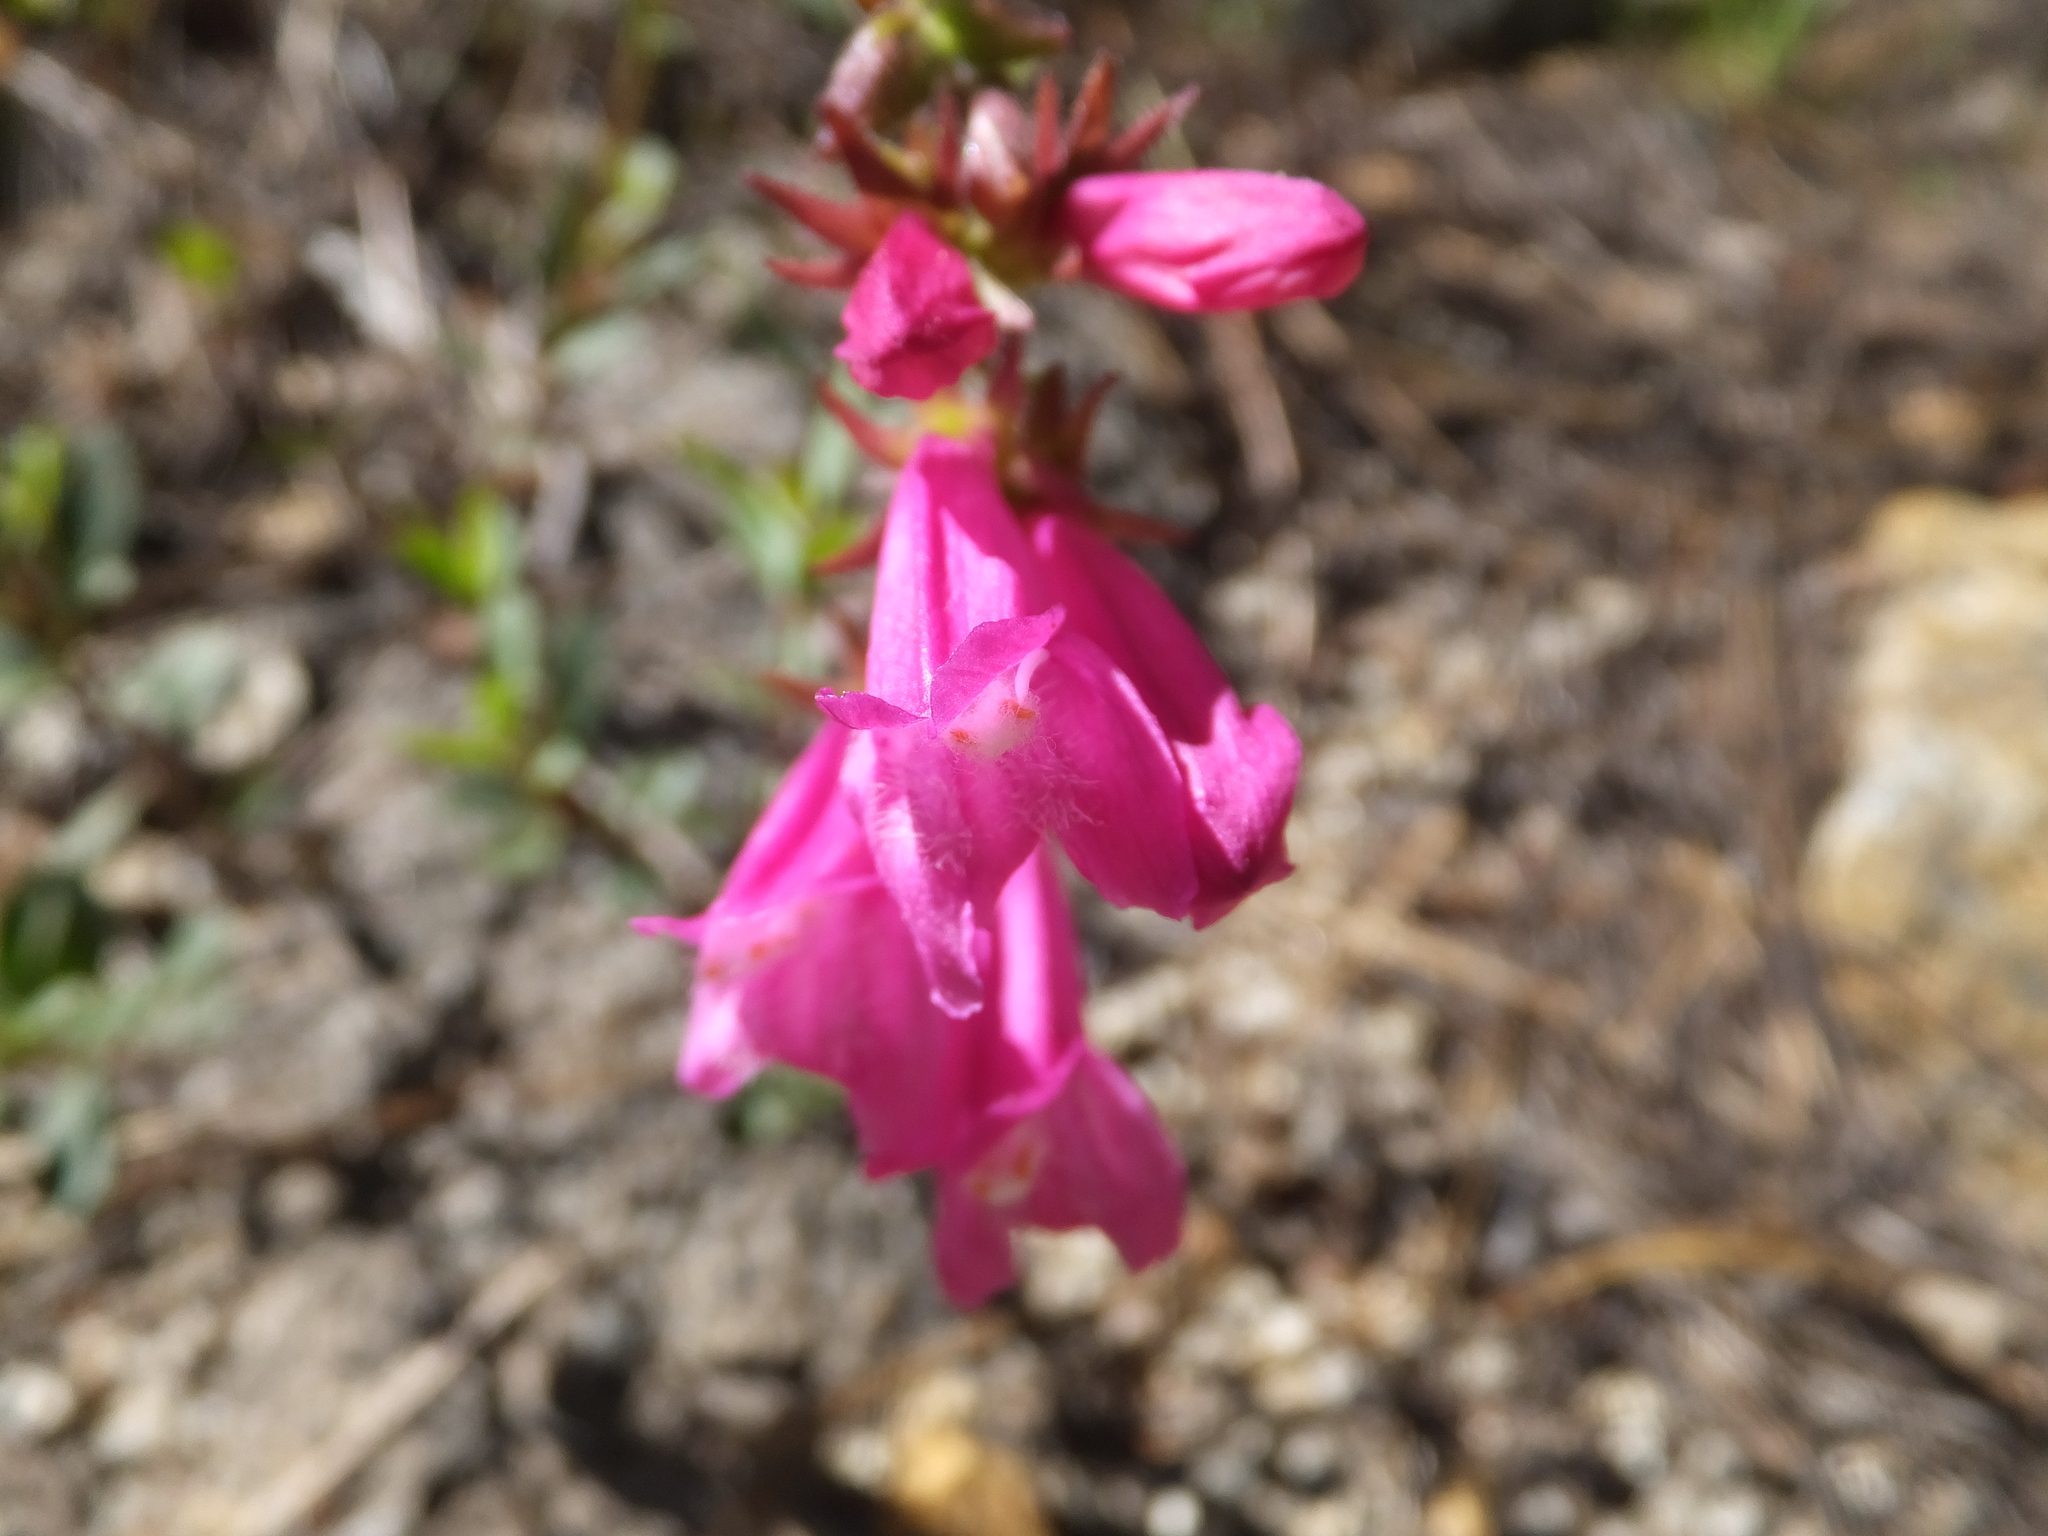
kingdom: Plantae
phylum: Tracheophyta
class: Magnoliopsida
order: Lamiales
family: Plantaginaceae
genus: Penstemon
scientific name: Penstemon newberryi
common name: Mountain-pride
